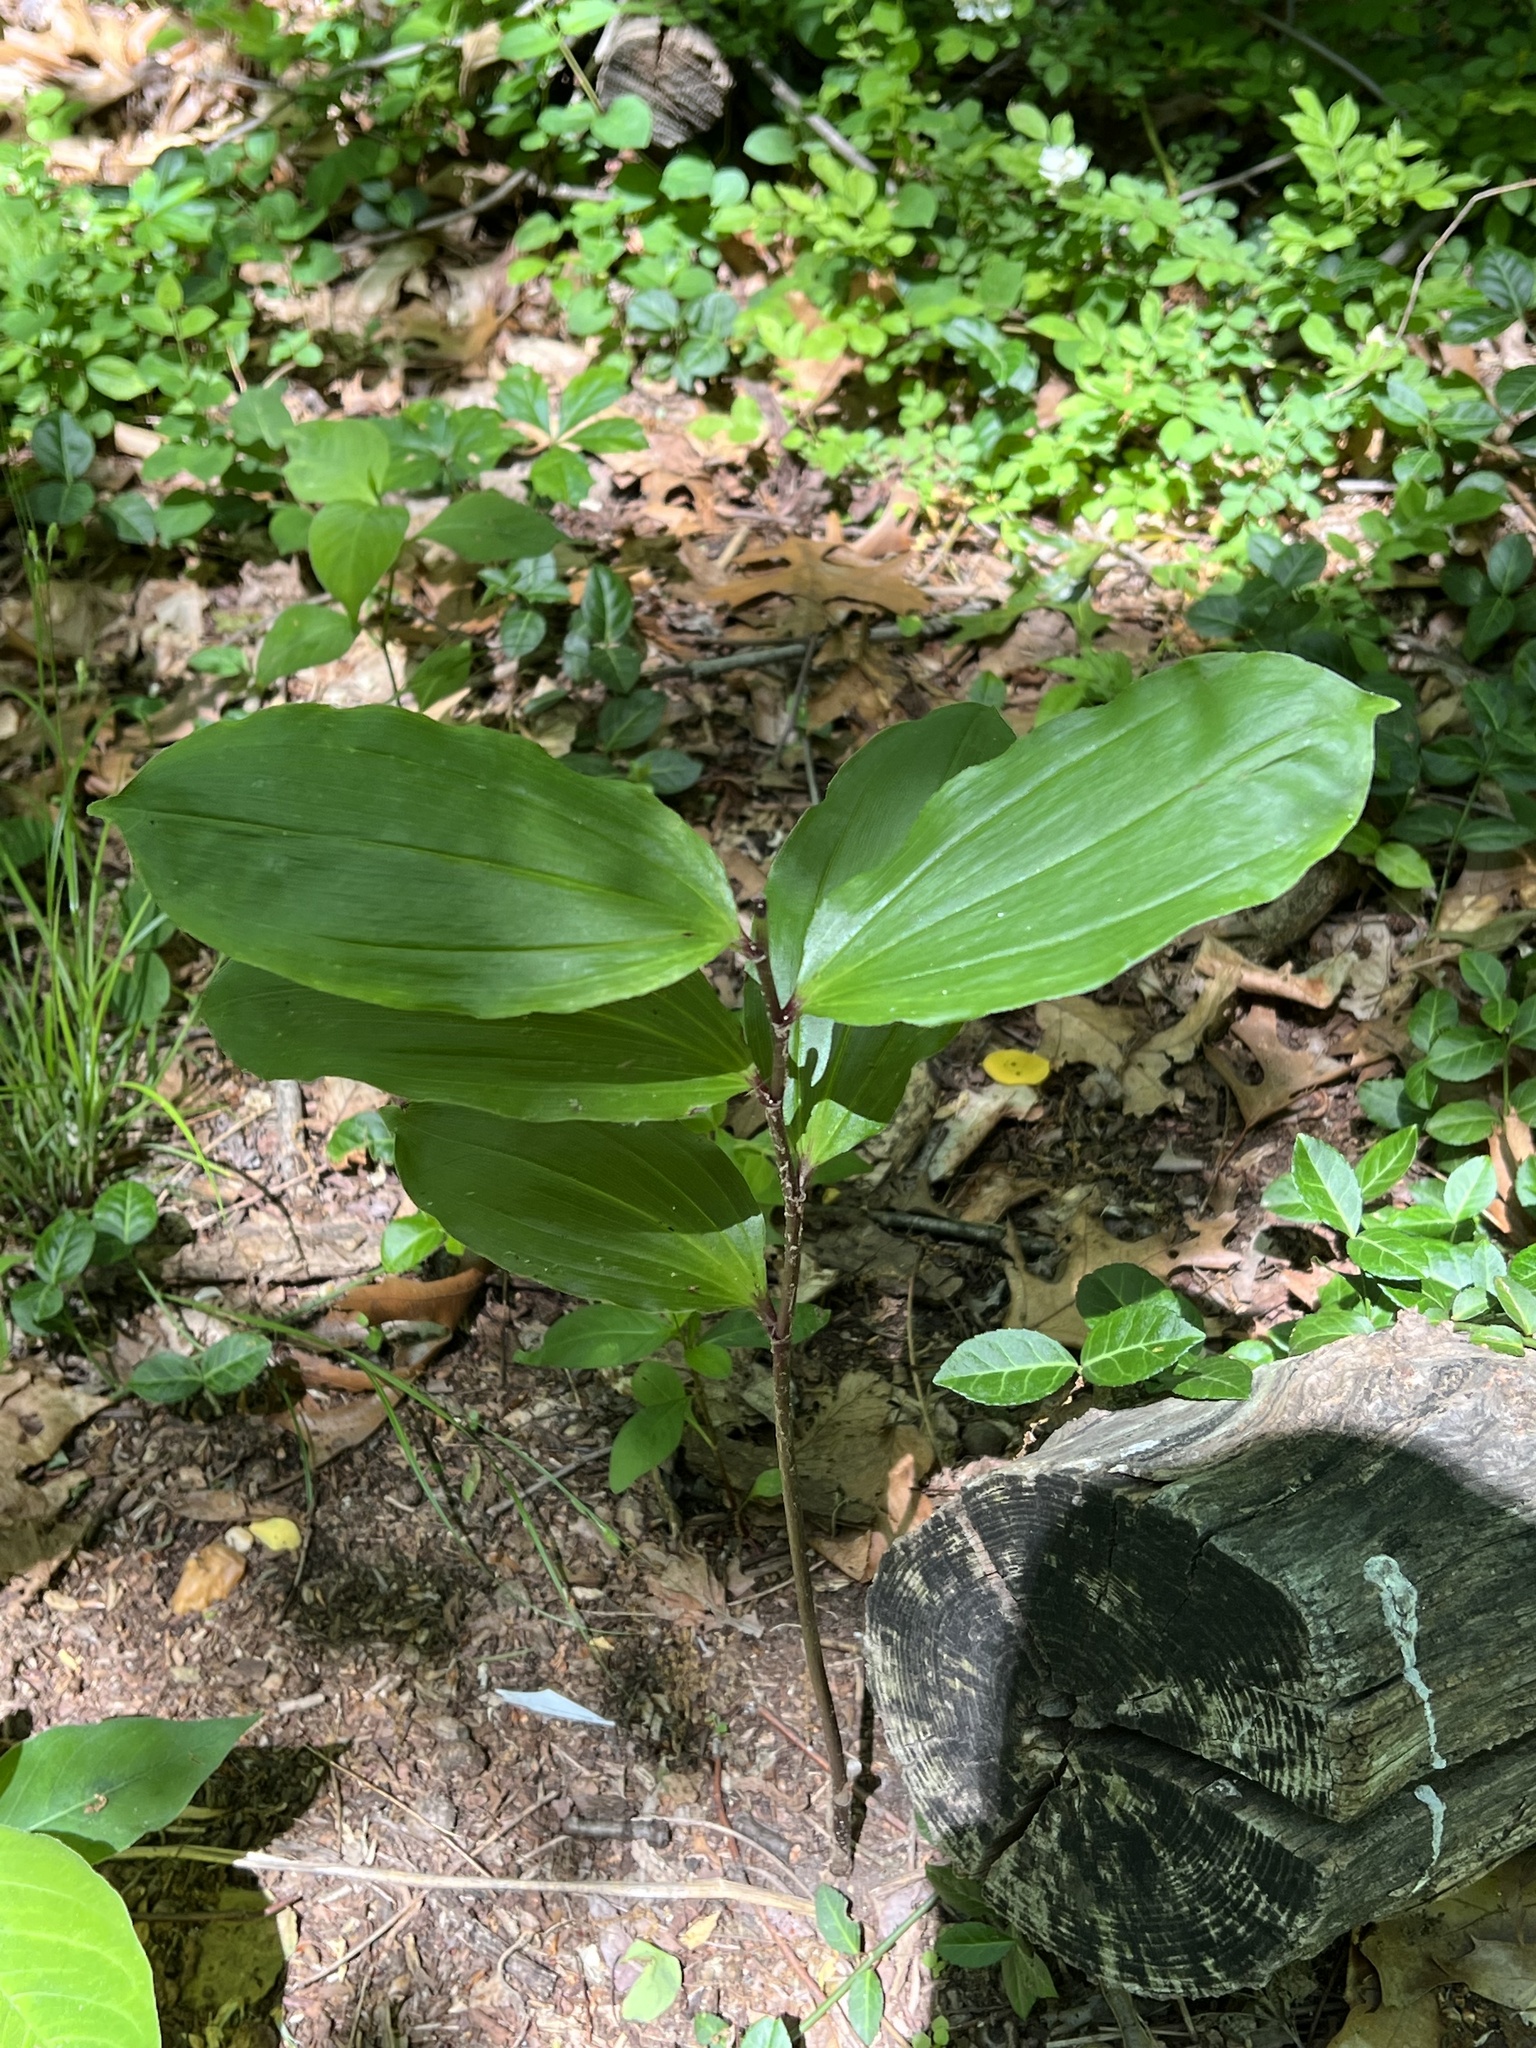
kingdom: Plantae
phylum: Tracheophyta
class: Liliopsida
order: Asparagales
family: Asparagaceae
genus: Maianthemum
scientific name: Maianthemum racemosum
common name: False spikenard
